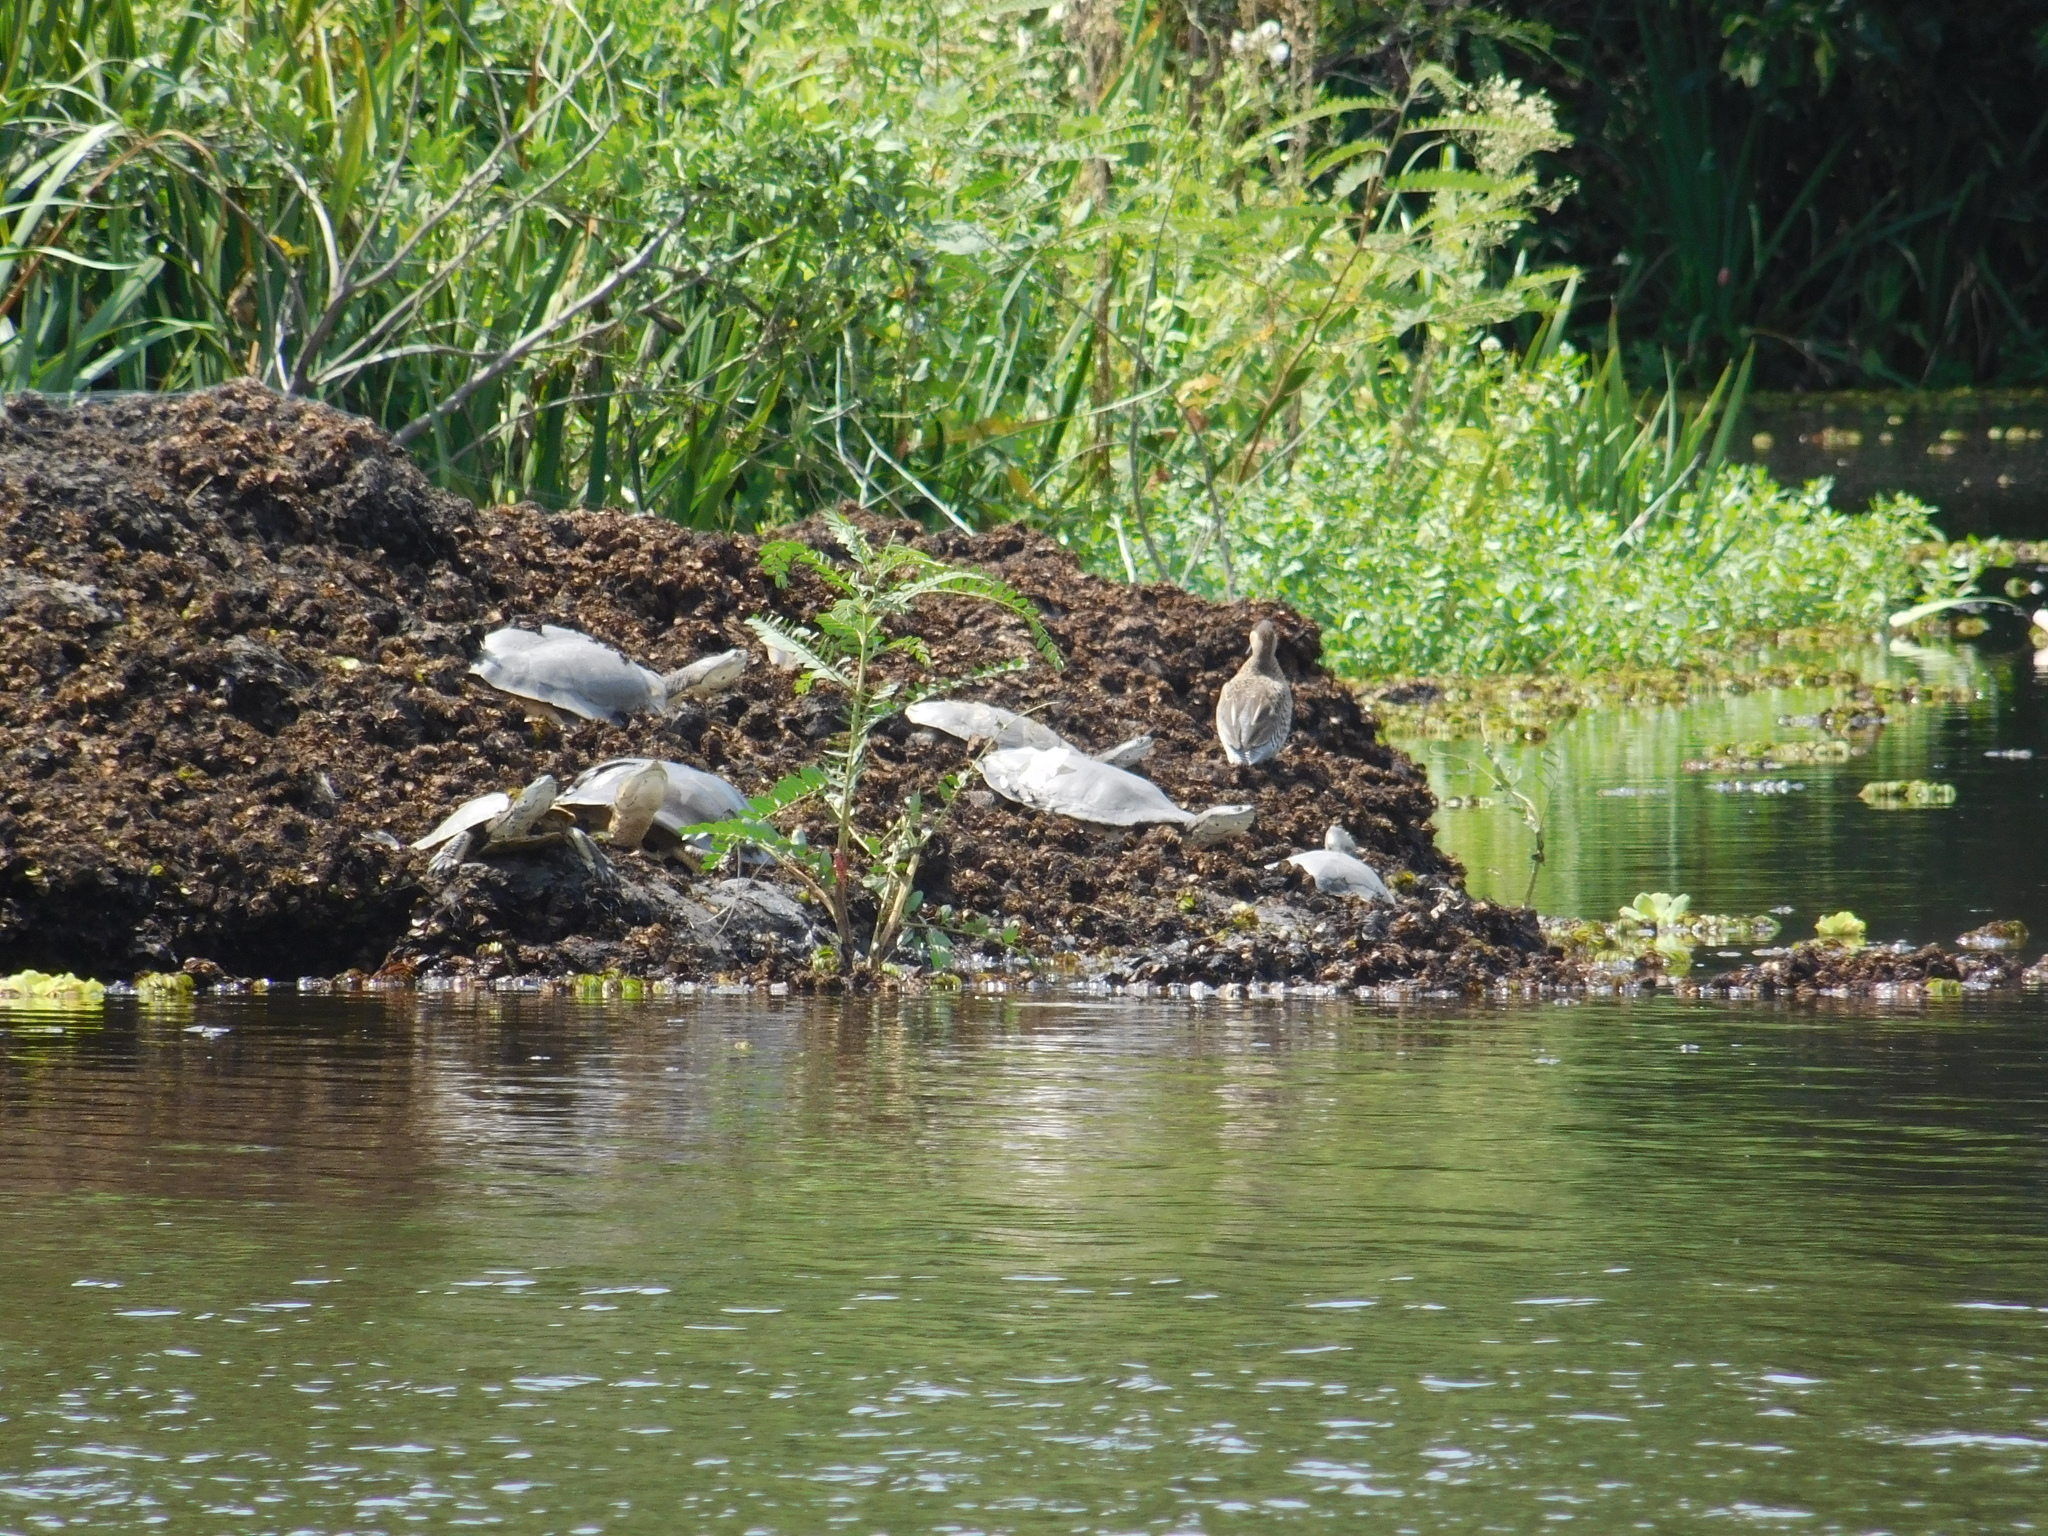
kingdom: Animalia
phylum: Chordata
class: Testudines
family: Chelidae
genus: Phrynops
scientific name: Phrynops hilarii
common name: Side-necked turtle of saint hillaire
